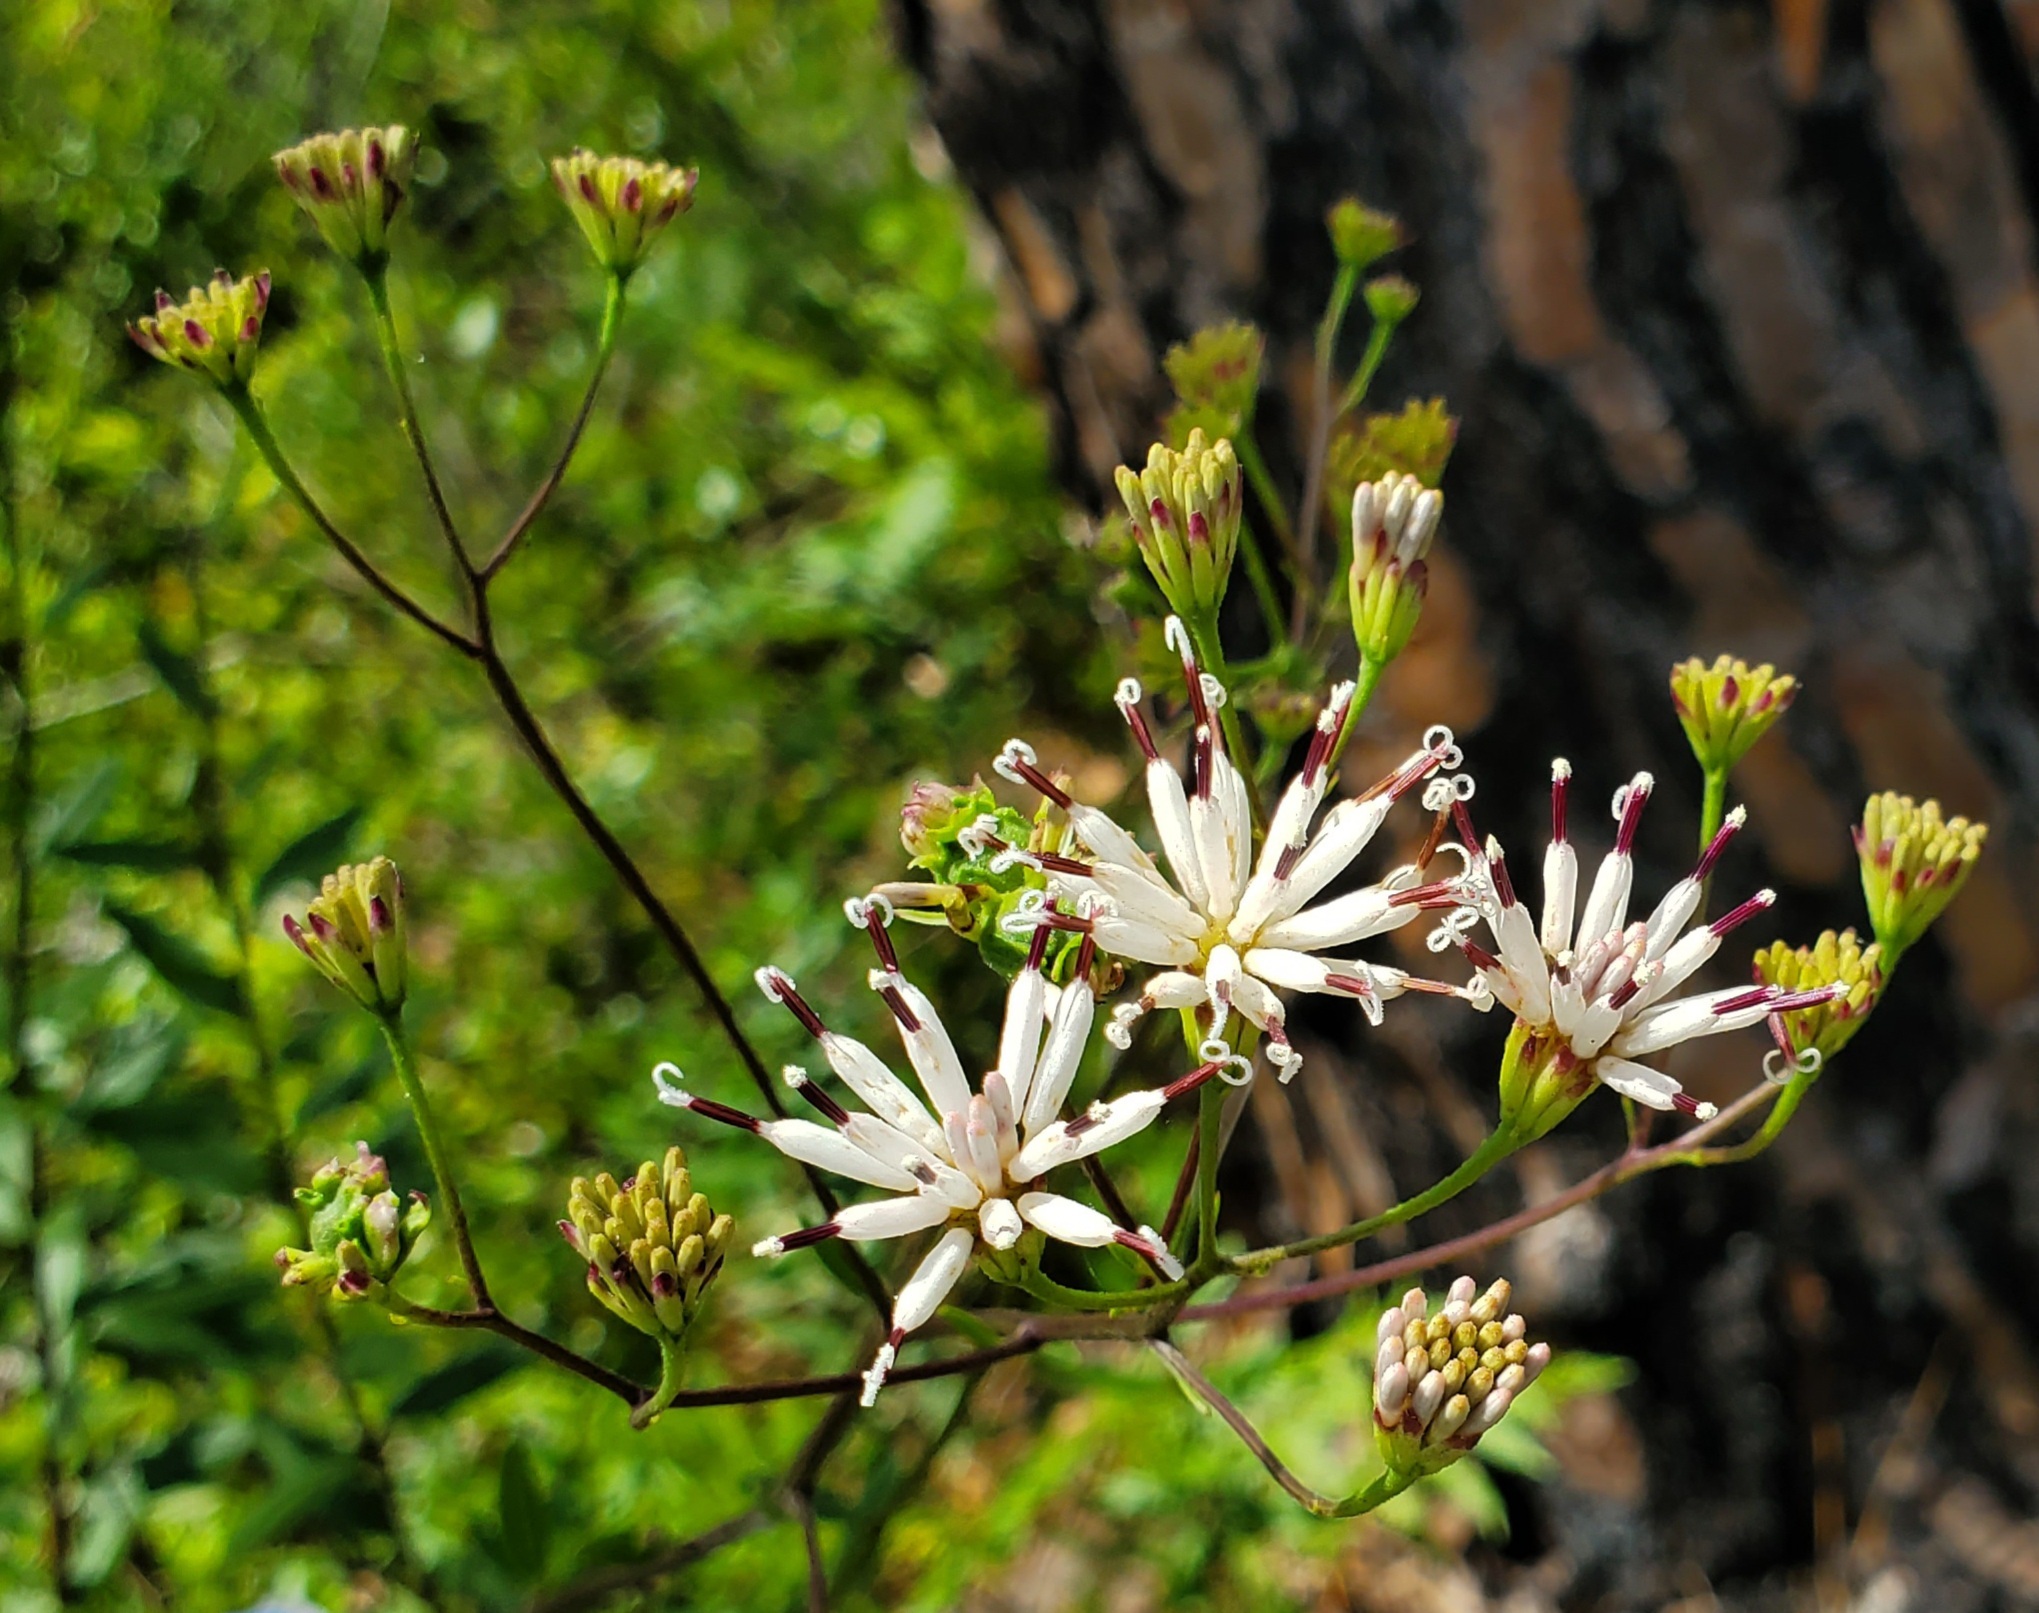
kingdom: Plantae
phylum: Tracheophyta
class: Magnoliopsida
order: Asterales
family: Asteraceae
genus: Palafoxia
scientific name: Palafoxia feayi
